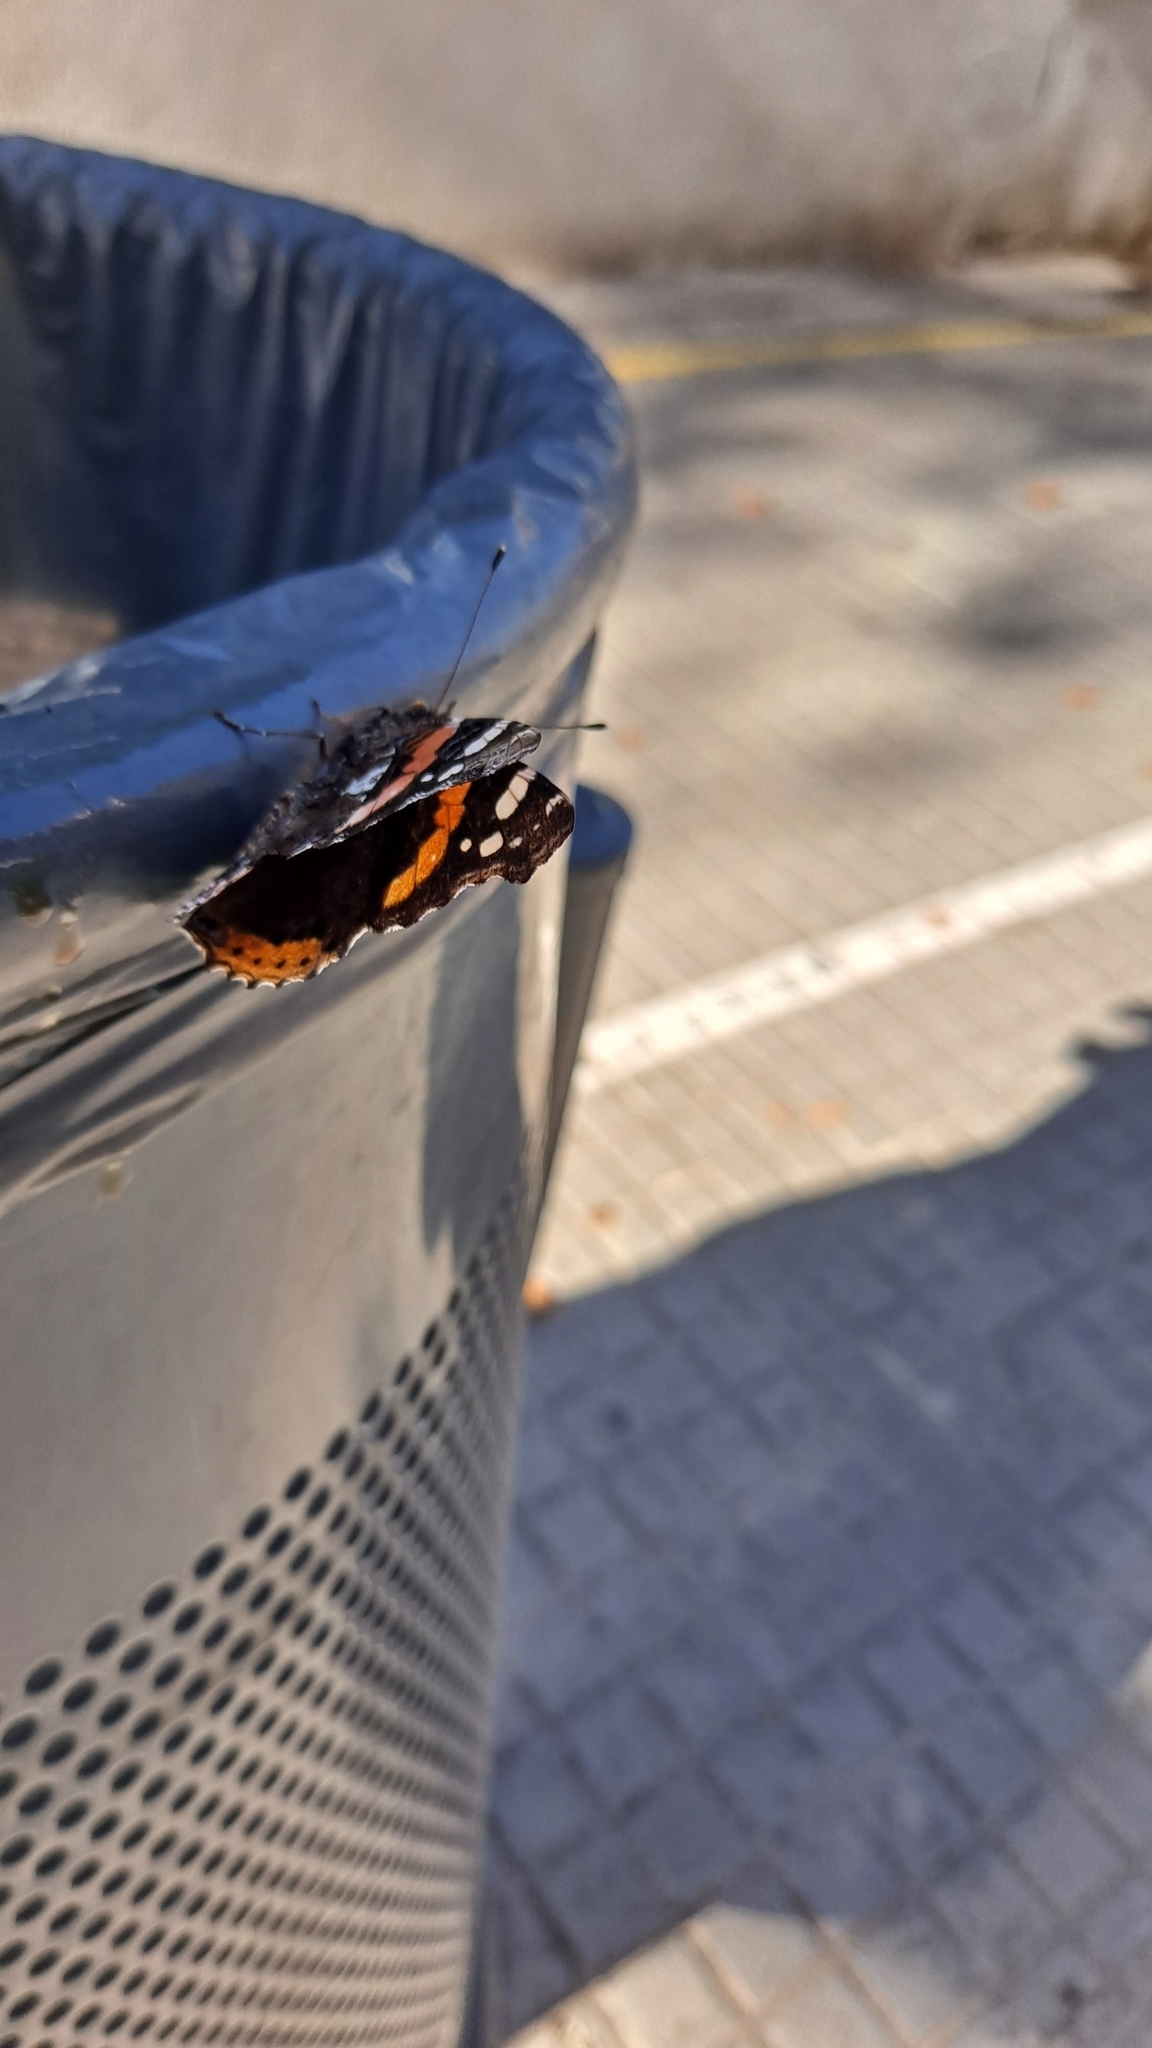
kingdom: Animalia
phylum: Arthropoda
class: Insecta
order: Lepidoptera
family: Nymphalidae
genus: Vanessa
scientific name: Vanessa atalanta
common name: Red admiral
